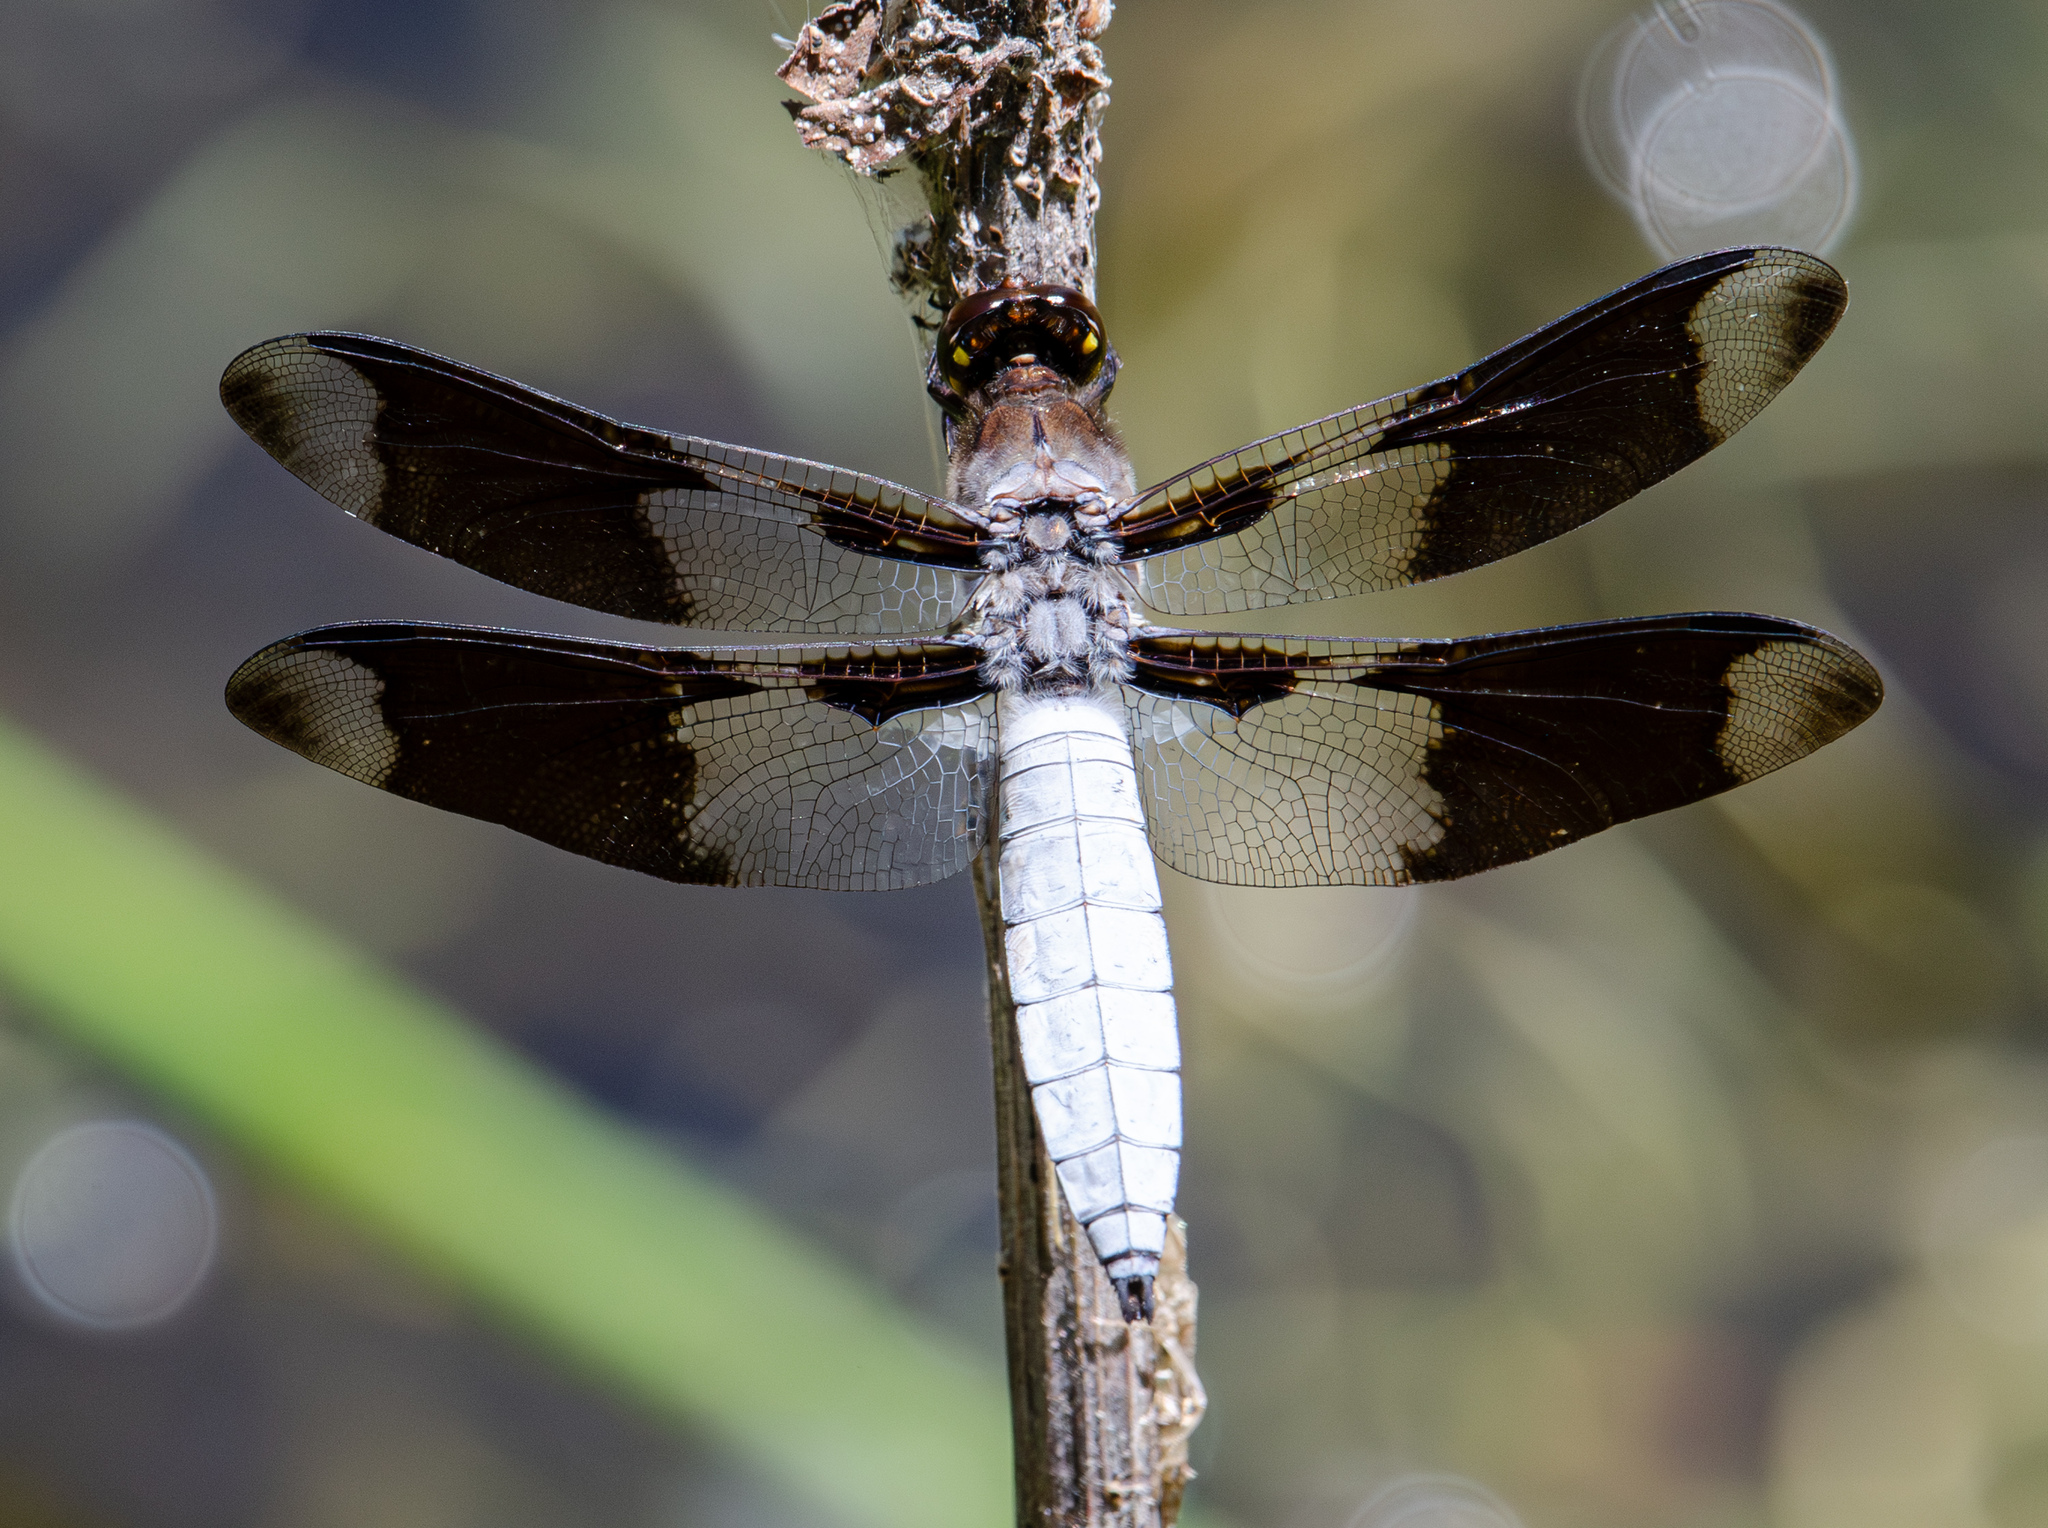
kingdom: Animalia
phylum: Arthropoda
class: Insecta
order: Odonata
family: Libellulidae
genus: Plathemis
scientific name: Plathemis lydia
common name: Common whitetail
